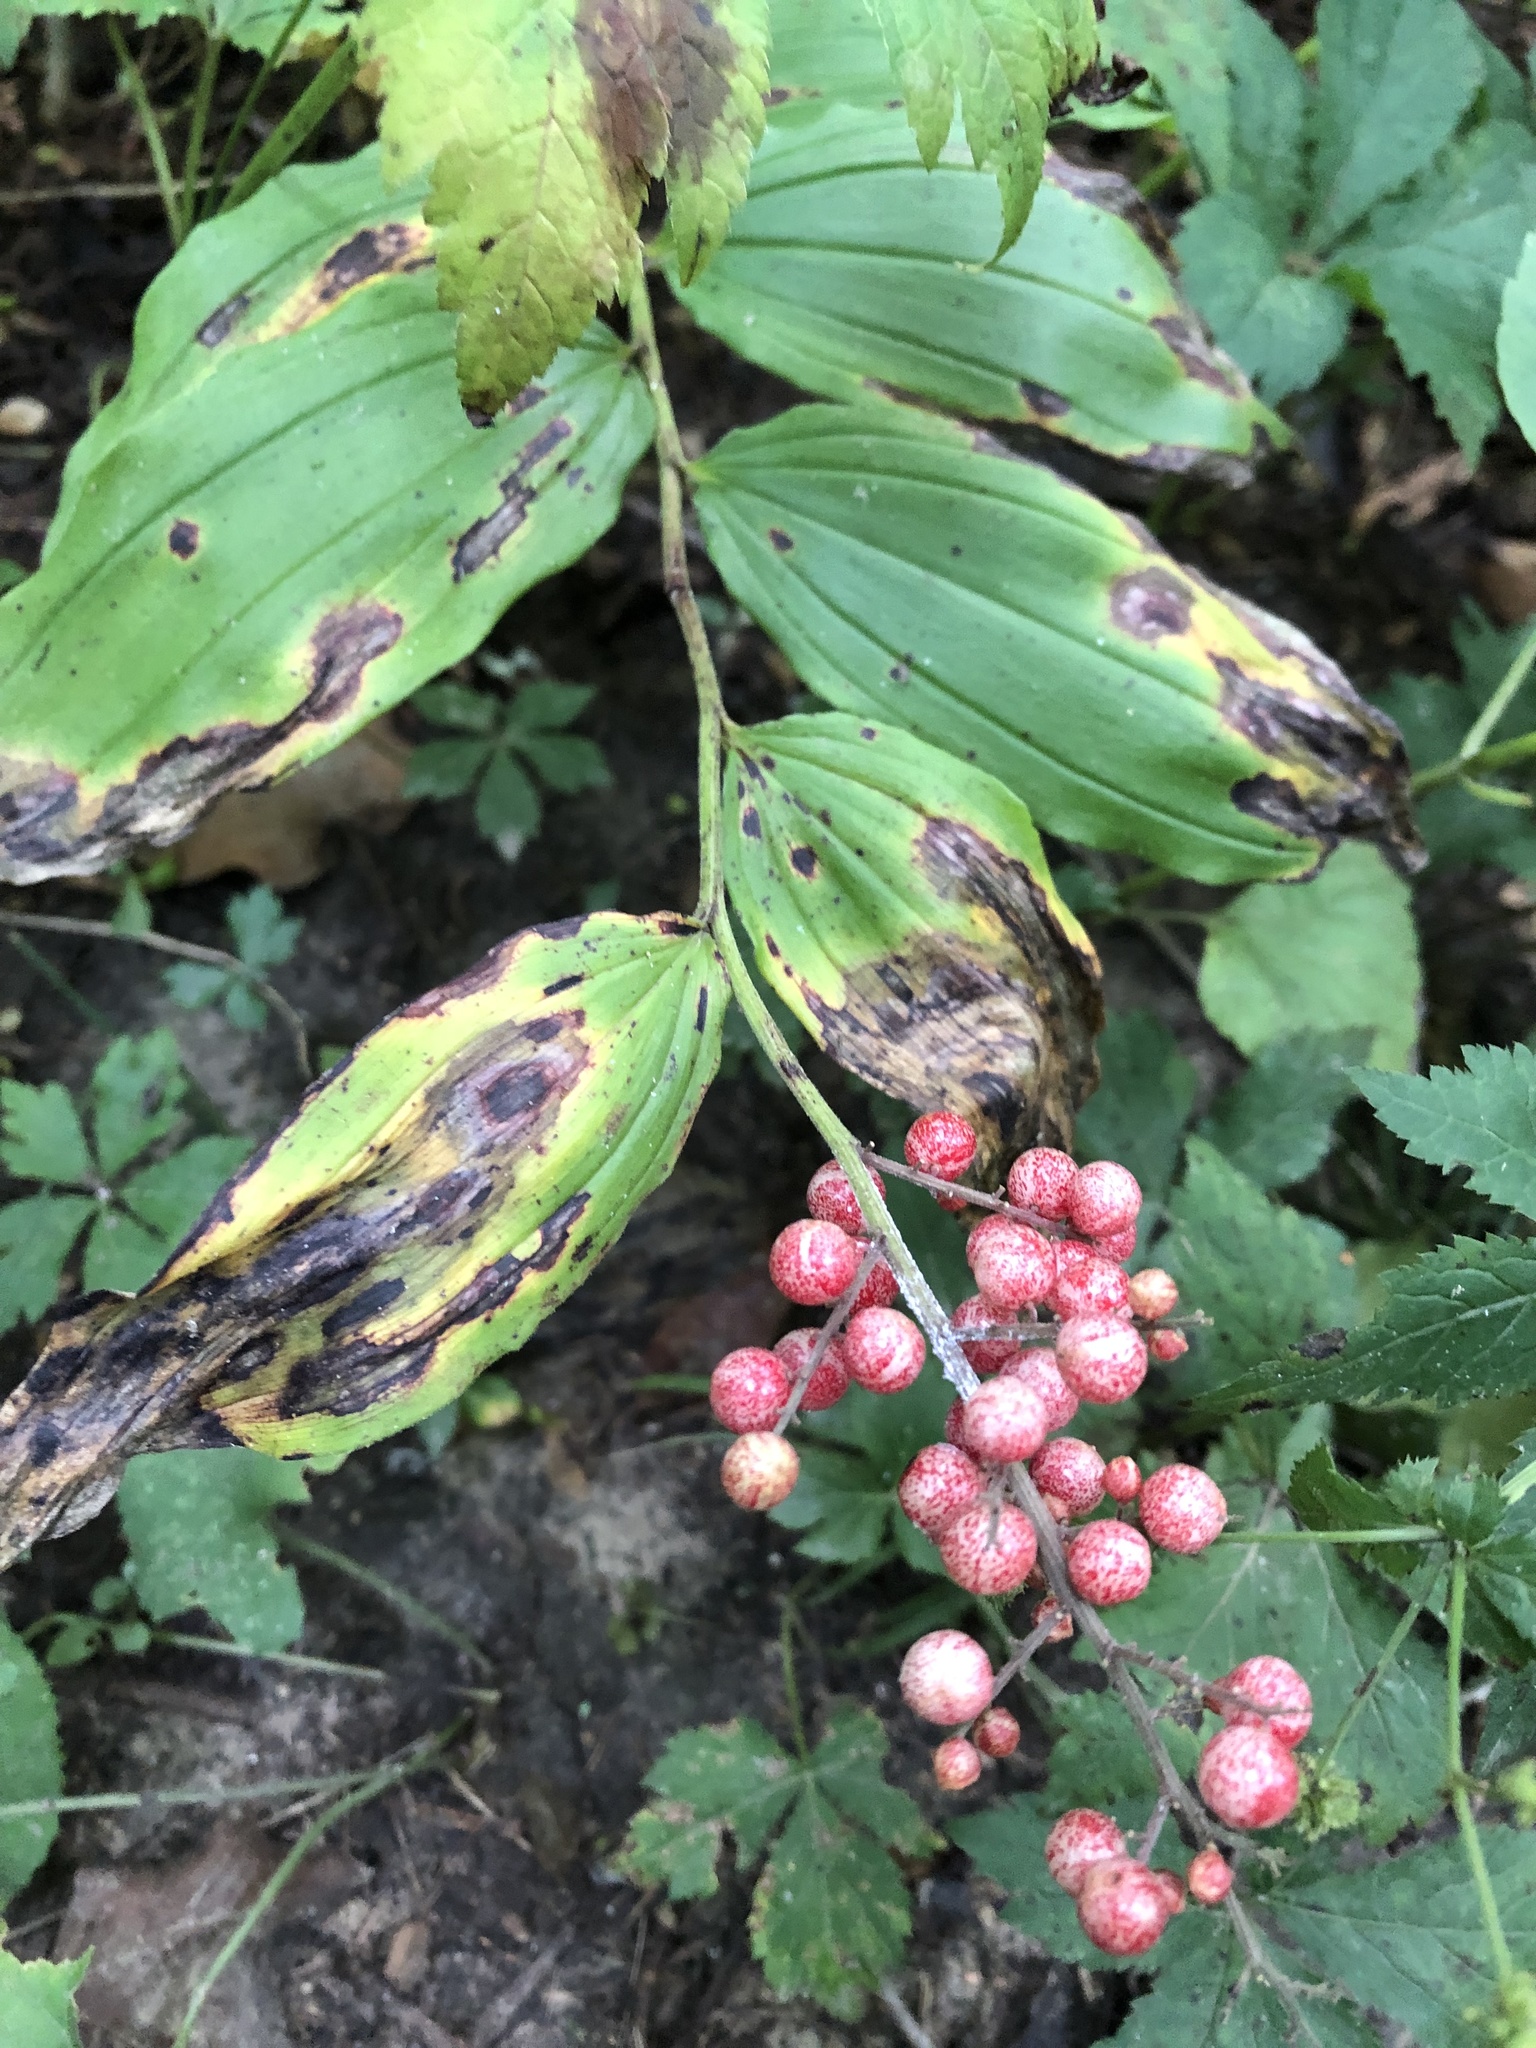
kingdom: Plantae
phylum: Tracheophyta
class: Liliopsida
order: Asparagales
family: Asparagaceae
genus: Maianthemum
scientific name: Maianthemum racemosum
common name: False spikenard
